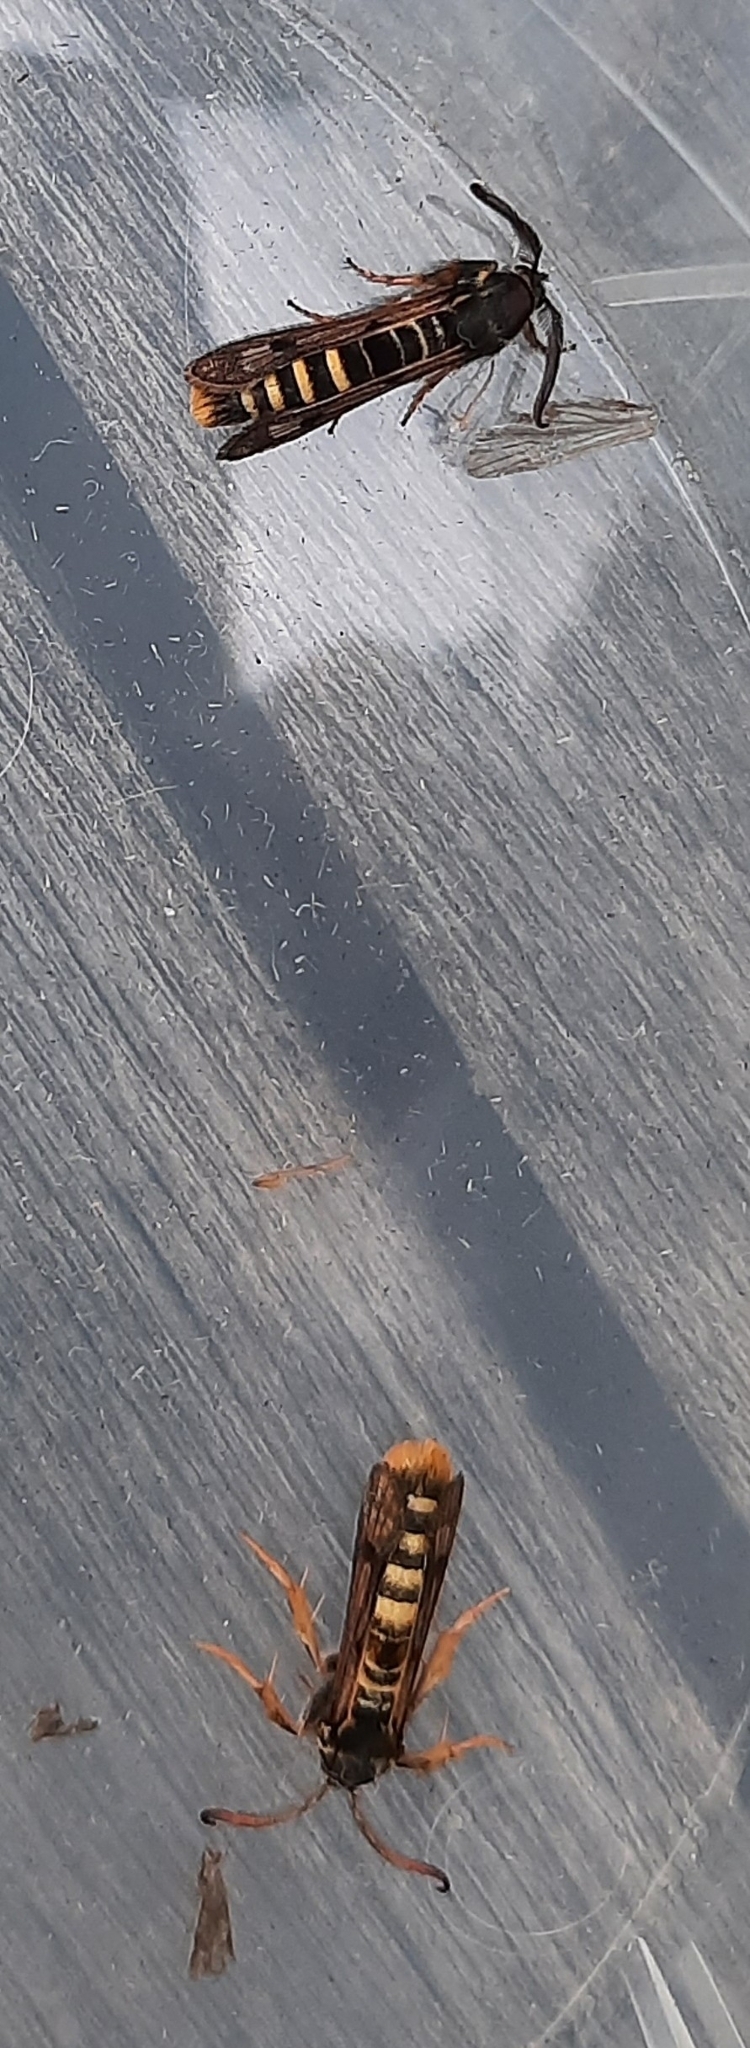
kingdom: Animalia
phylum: Arthropoda
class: Insecta
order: Lepidoptera
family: Sesiidae
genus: Pennisetia
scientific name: Pennisetia hylaeiformis
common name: Raspberry clearwing
